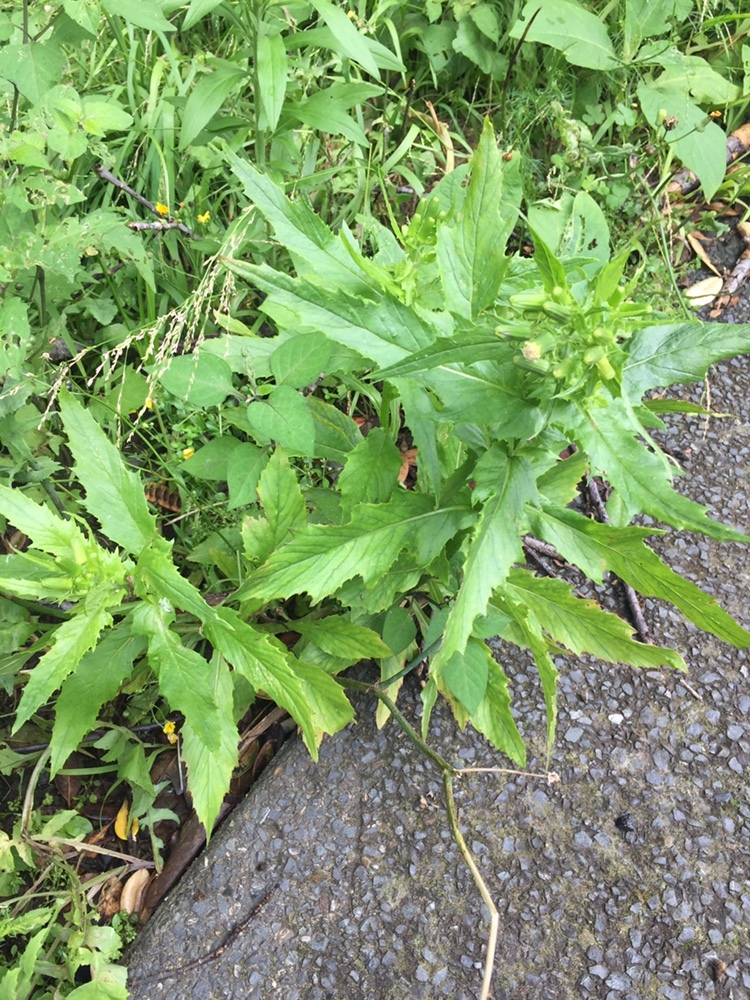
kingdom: Plantae
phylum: Tracheophyta
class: Magnoliopsida
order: Asterales
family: Asteraceae
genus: Erechtites
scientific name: Erechtites hieraciifolius
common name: American burnweed
